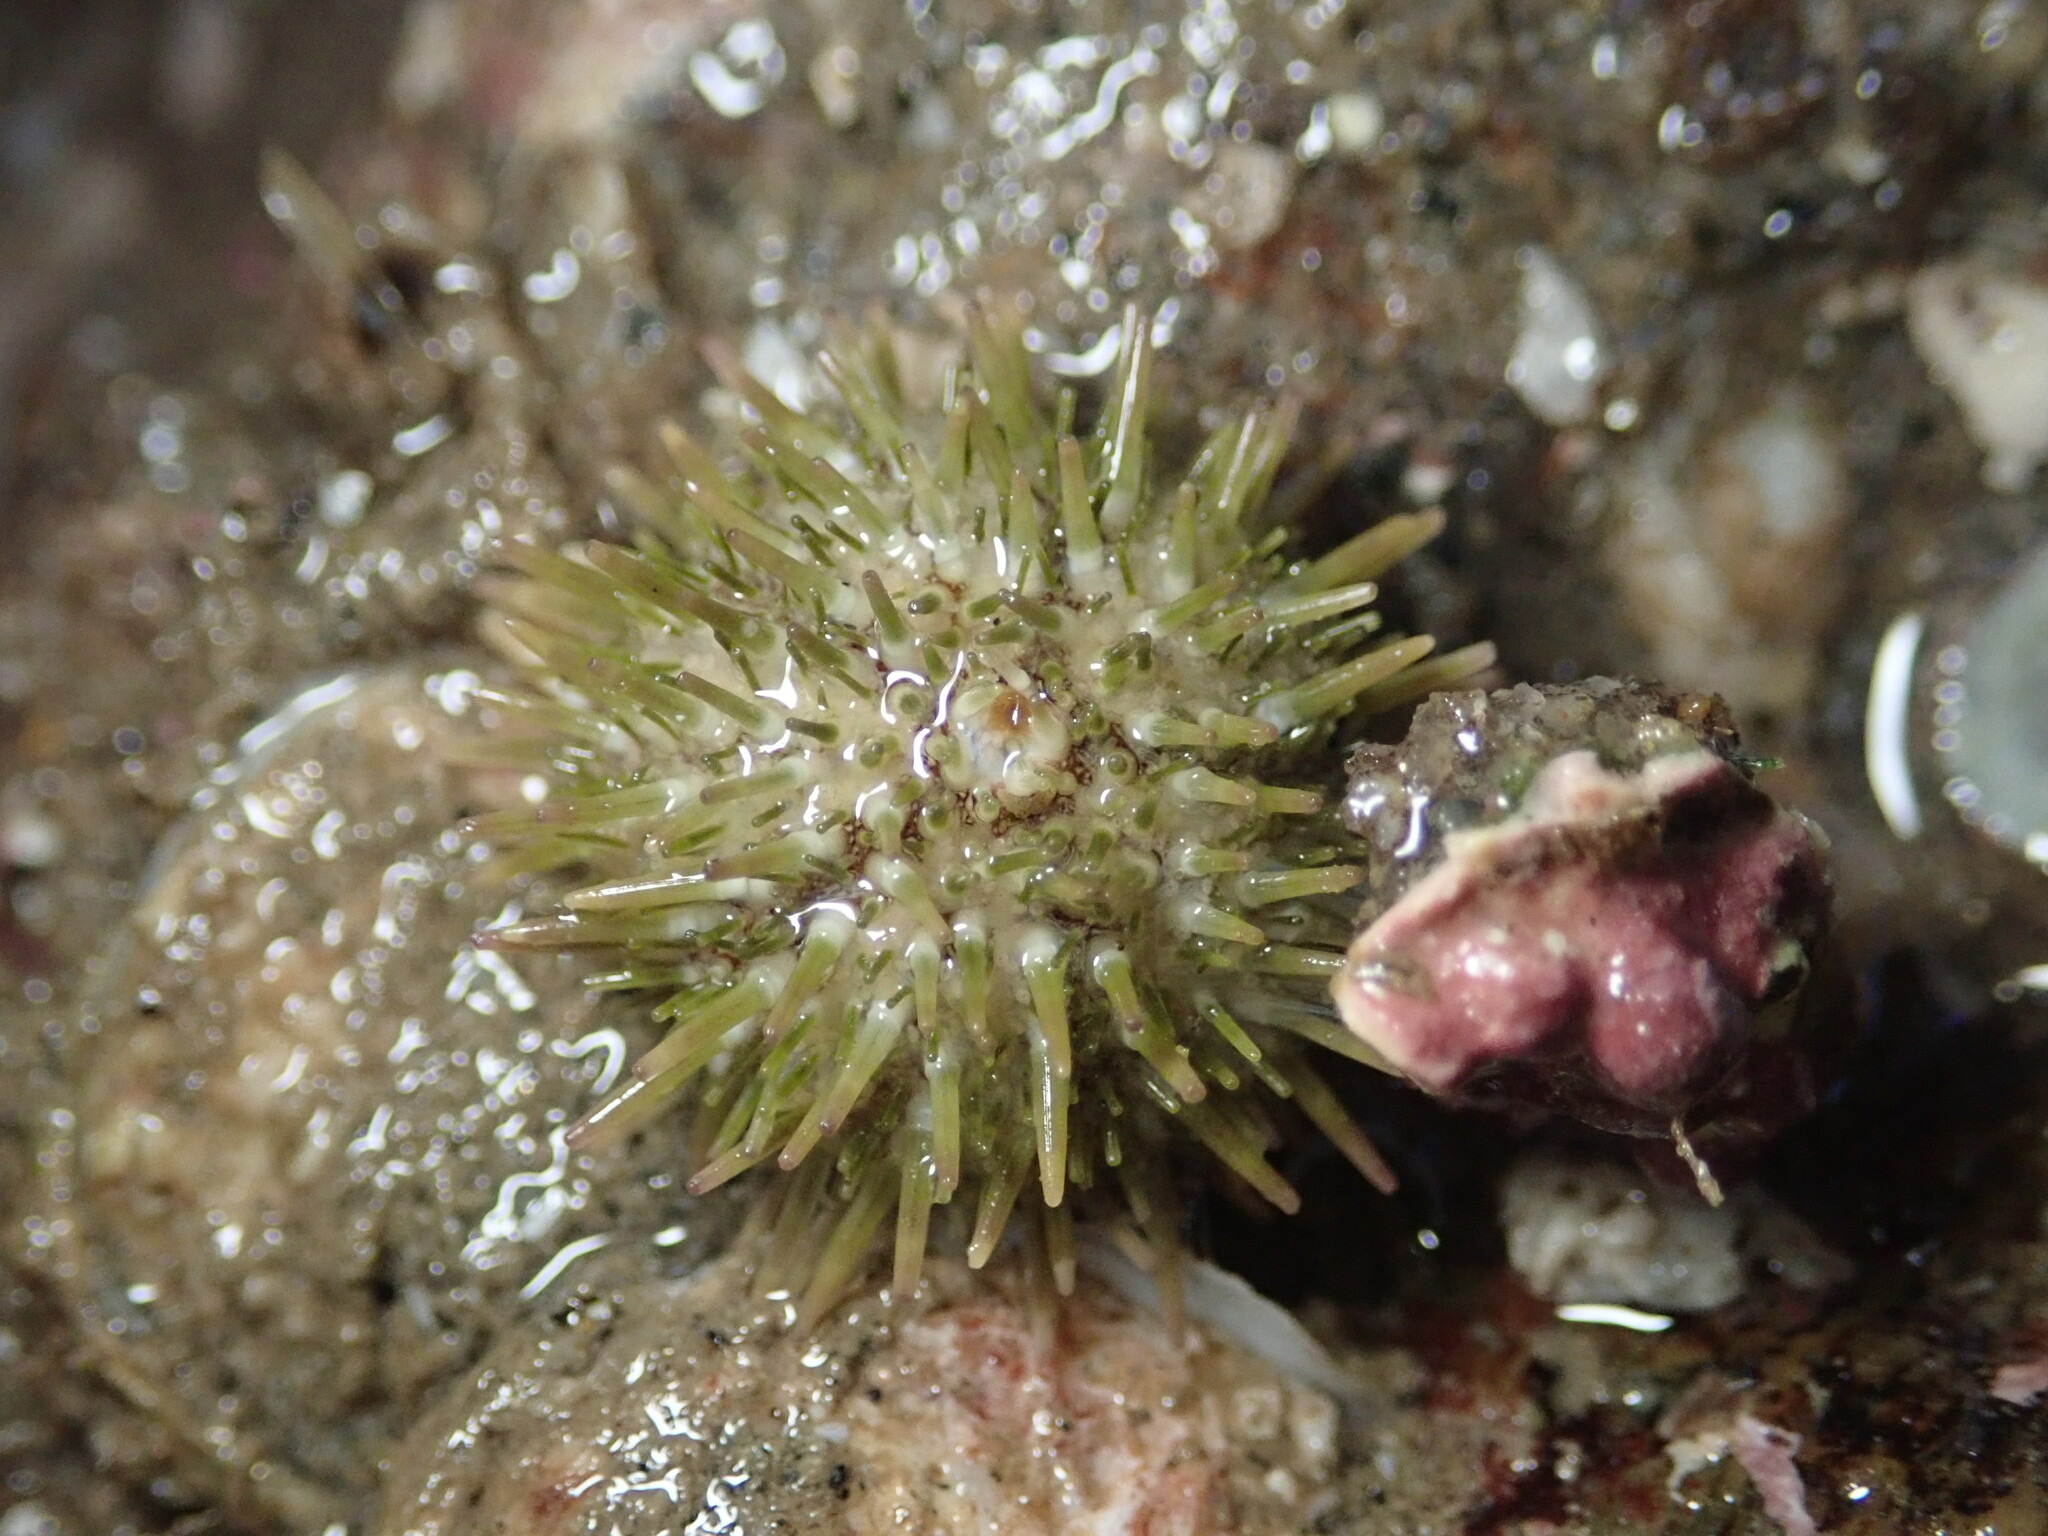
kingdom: Animalia
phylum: Echinodermata
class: Echinoidea
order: Camarodonta
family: Strongylocentrotidae
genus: Strongylocentrotus
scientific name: Strongylocentrotus purpuratus
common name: Purple sea urchin
